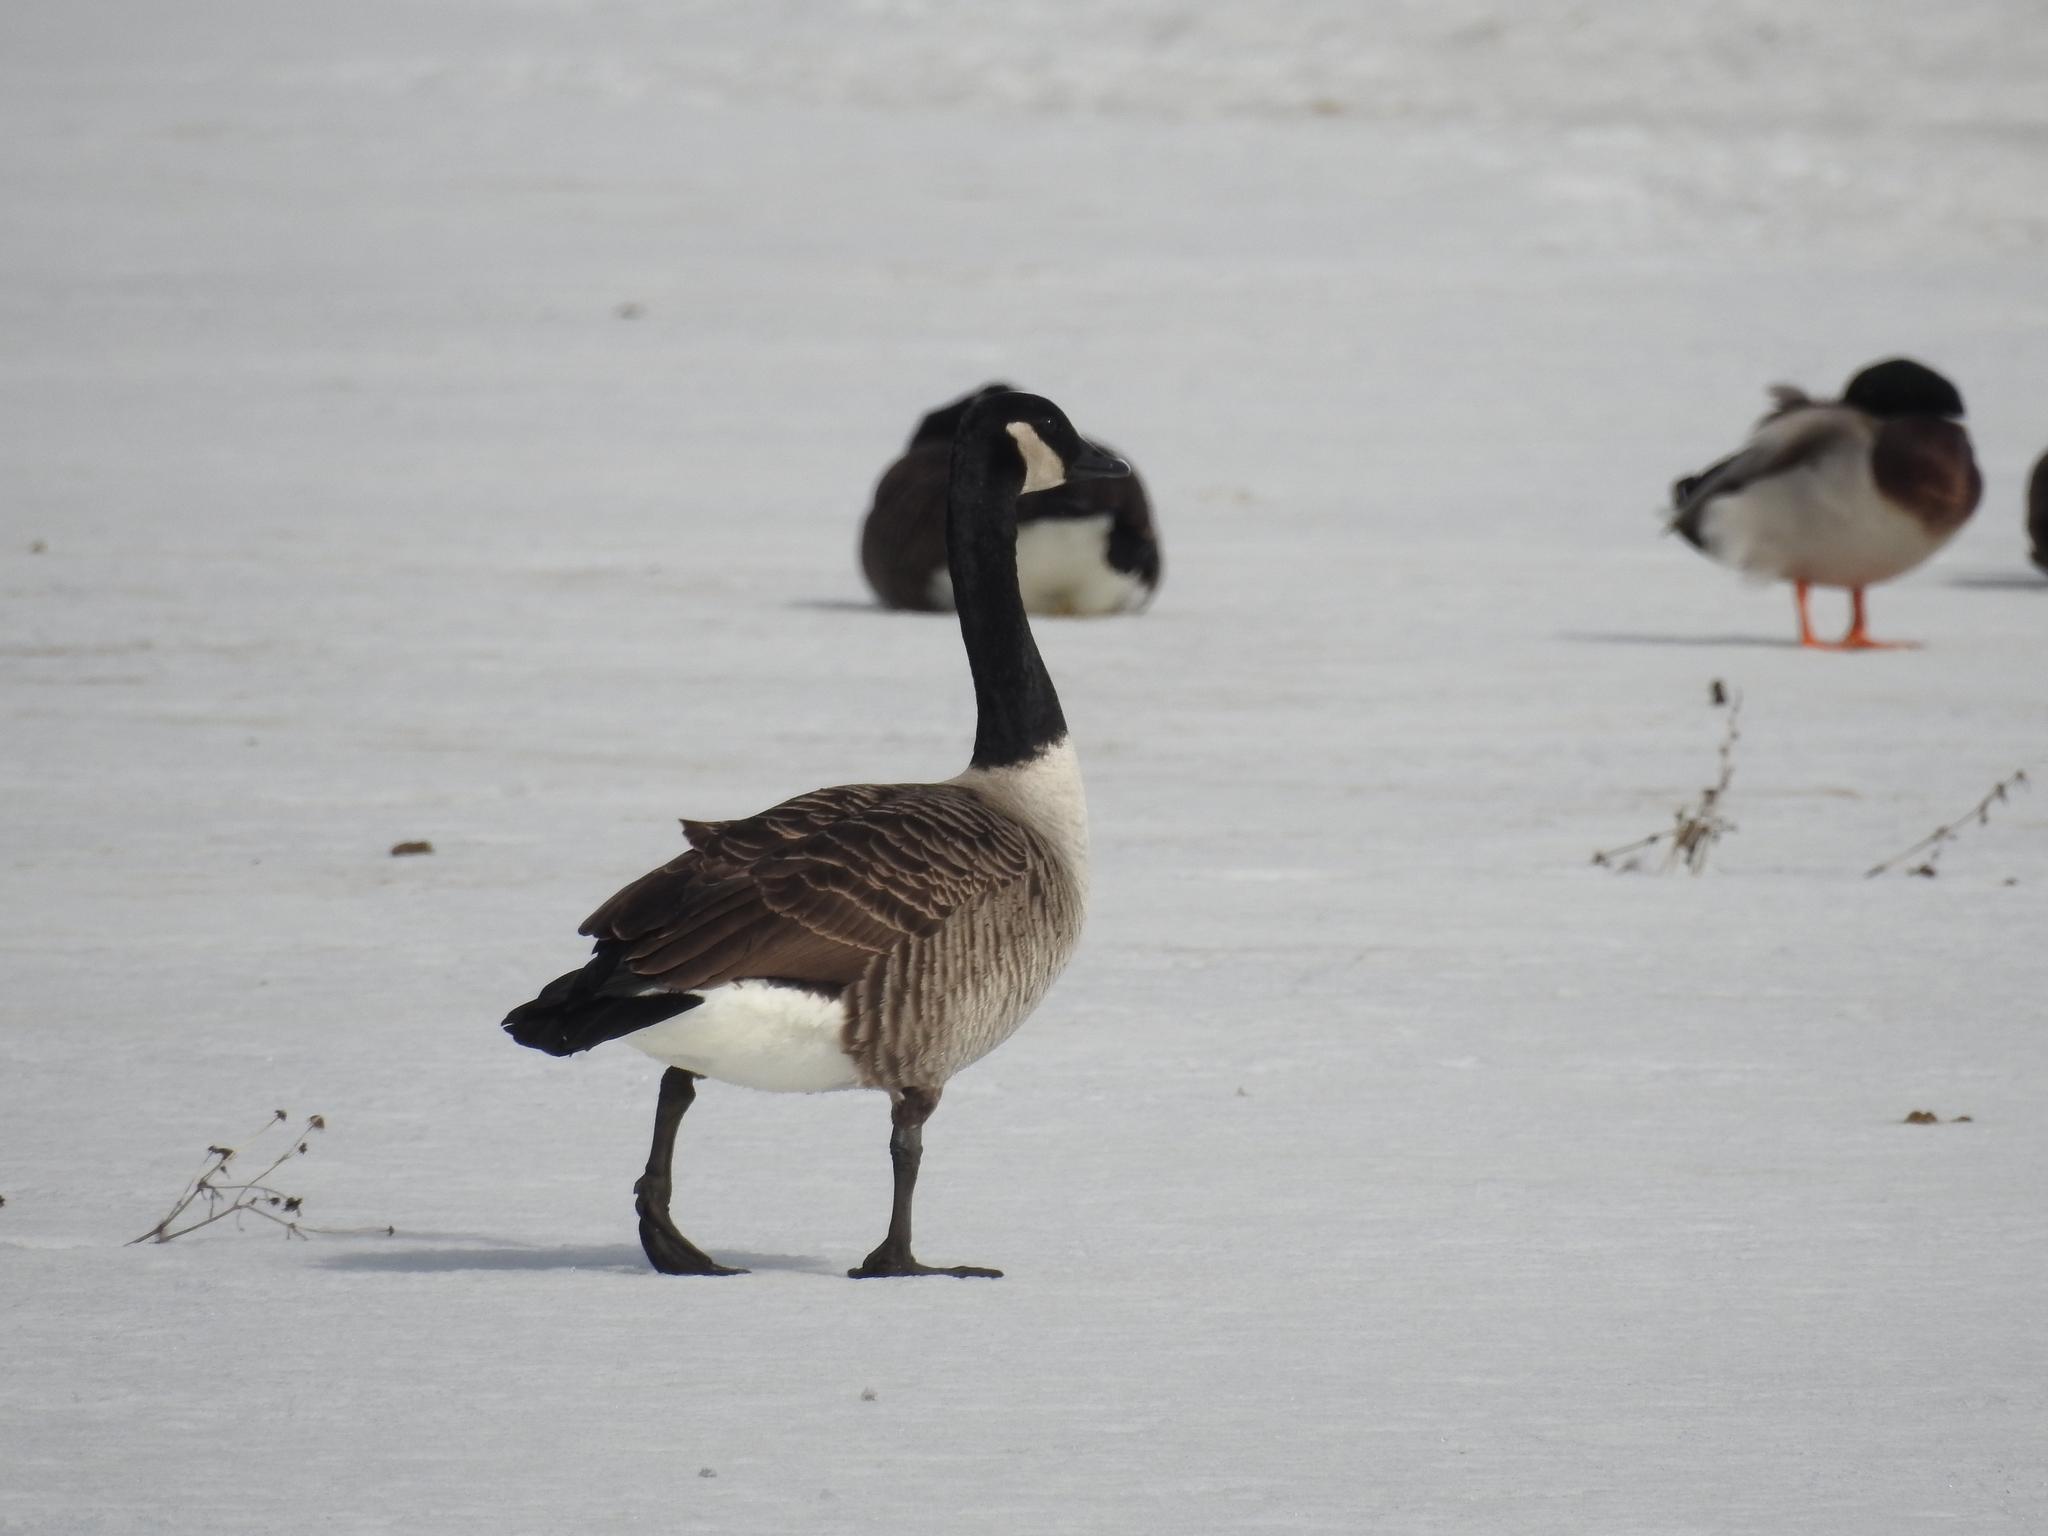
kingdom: Animalia
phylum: Chordata
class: Aves
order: Anseriformes
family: Anatidae
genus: Branta
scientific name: Branta canadensis
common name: Canada goose
